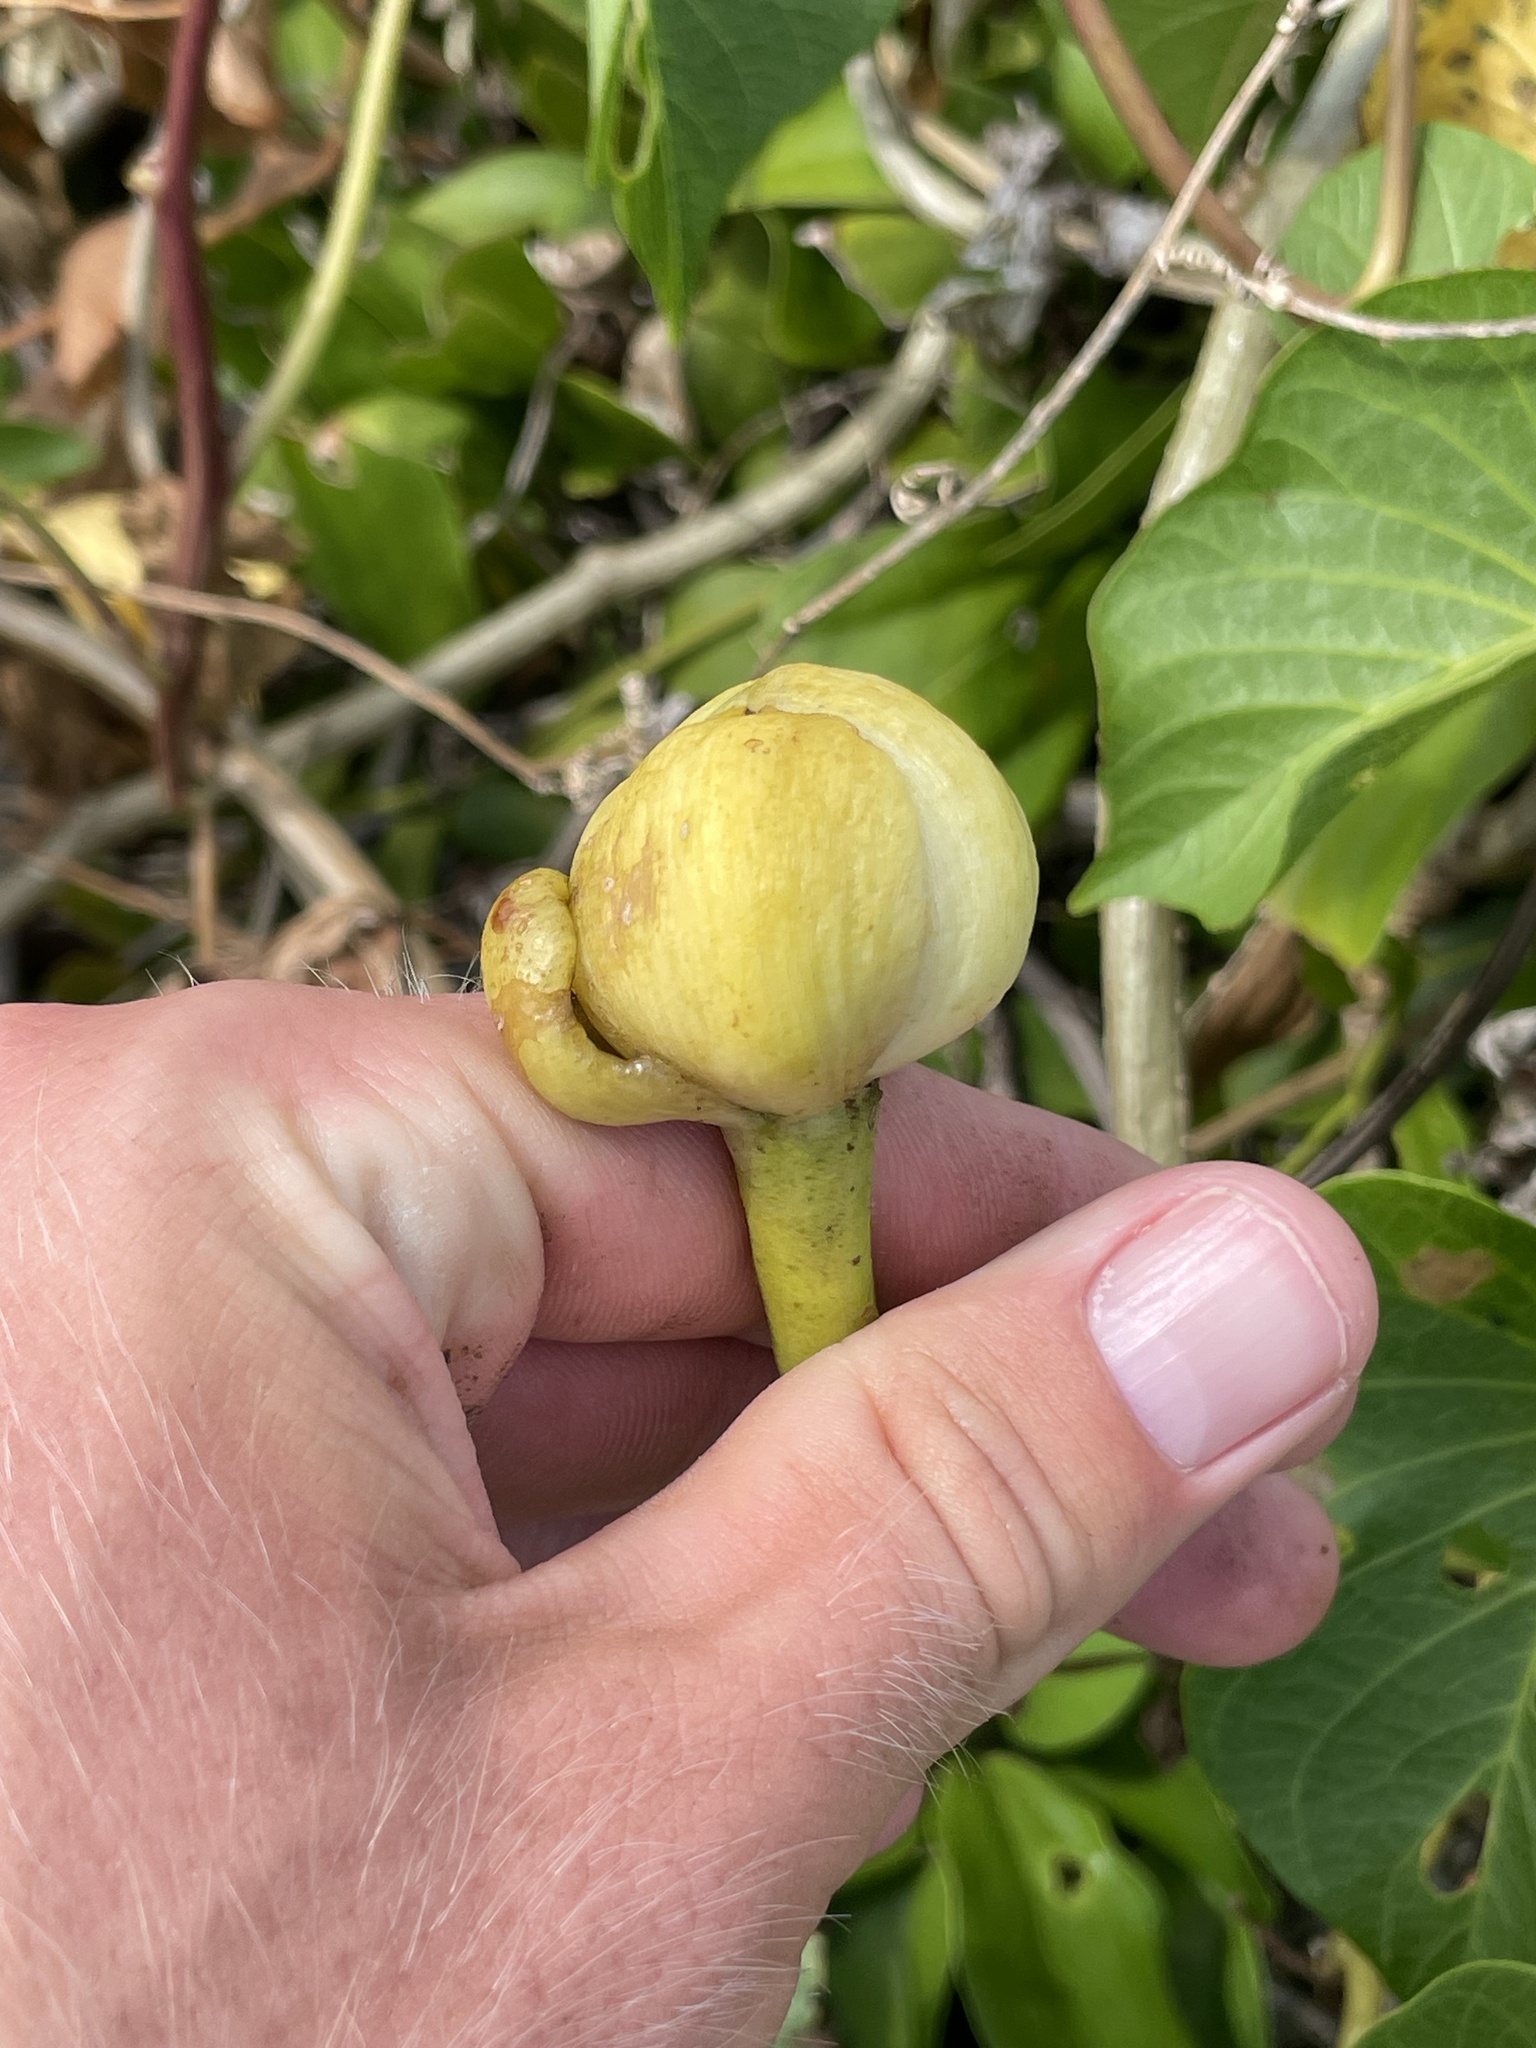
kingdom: Plantae
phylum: Tracheophyta
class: Magnoliopsida
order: Solanales
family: Convolvulaceae
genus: Ipomoea
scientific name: Ipomoea violacea
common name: Beach moonflower
